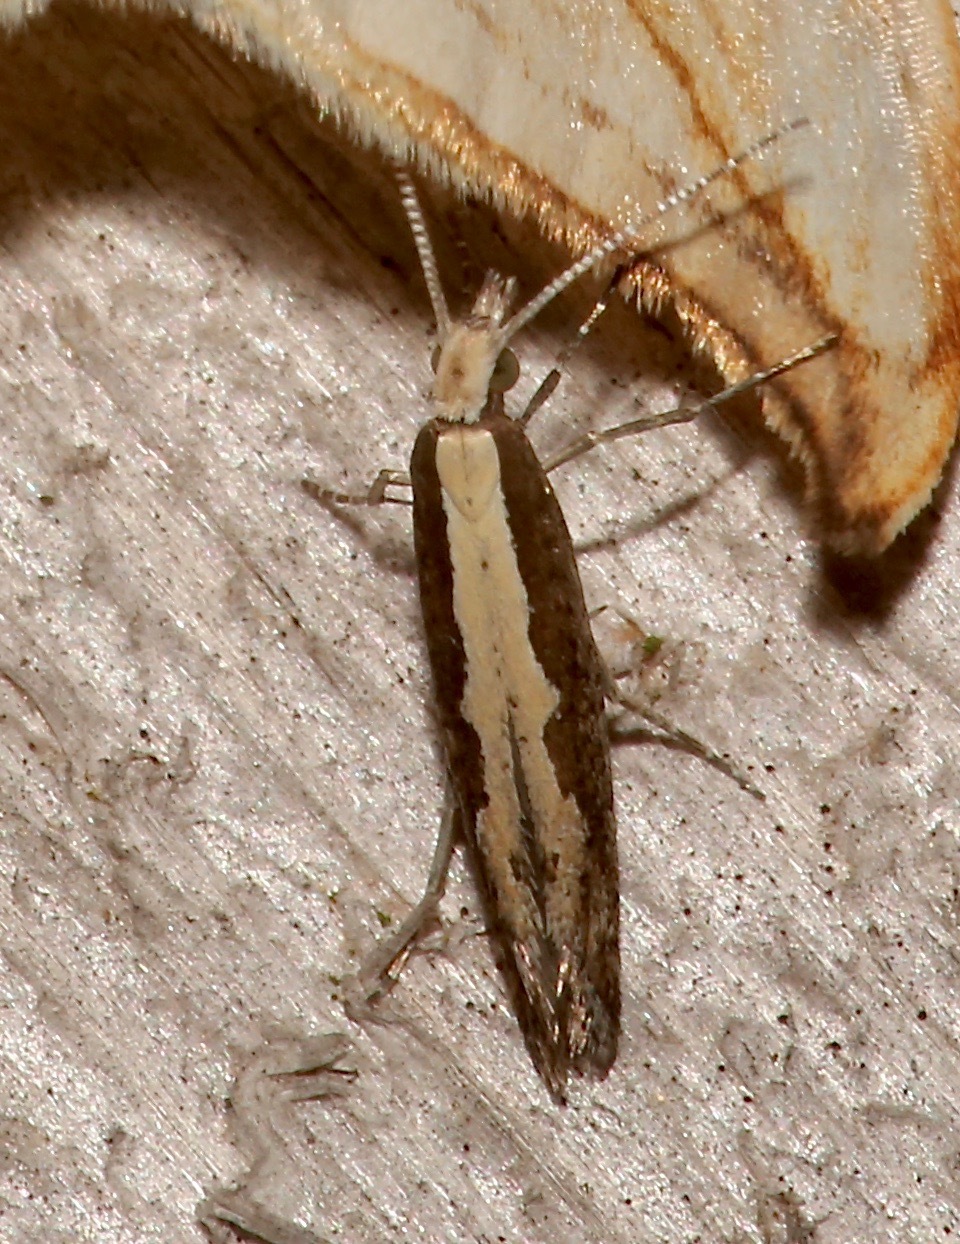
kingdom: Animalia
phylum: Arthropoda
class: Insecta
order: Lepidoptera
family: Plutellidae
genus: Plutella
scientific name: Plutella xylostella
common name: Diamond-back moth
